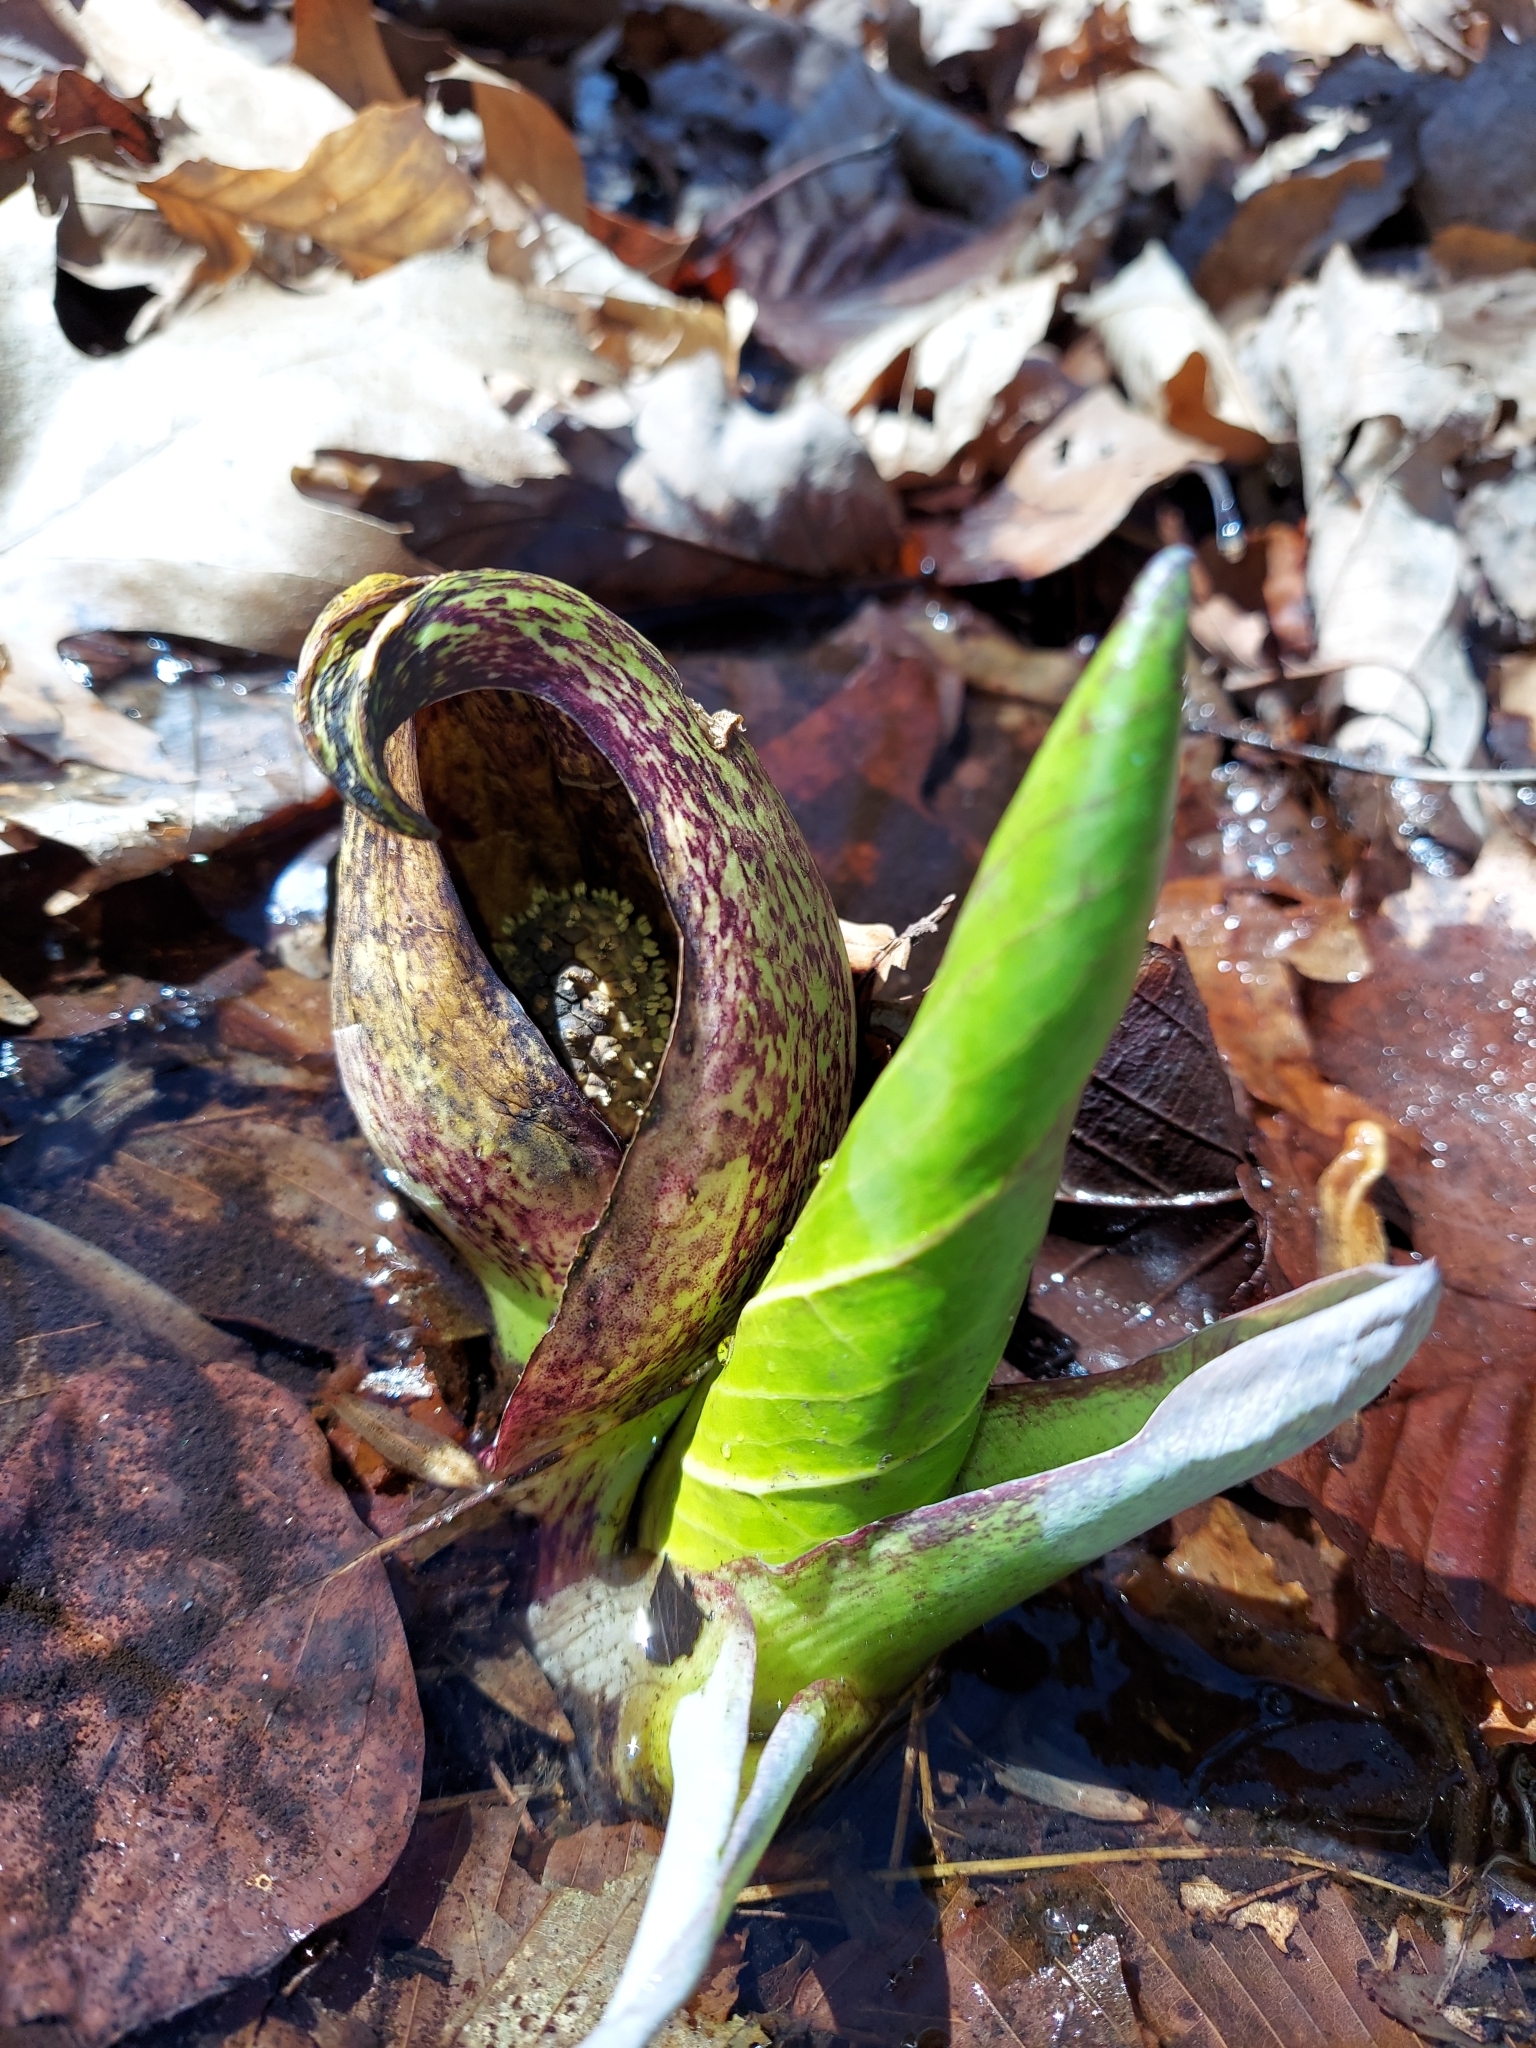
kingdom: Plantae
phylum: Tracheophyta
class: Liliopsida
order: Alismatales
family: Araceae
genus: Symplocarpus
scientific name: Symplocarpus foetidus
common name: Eastern skunk cabbage
